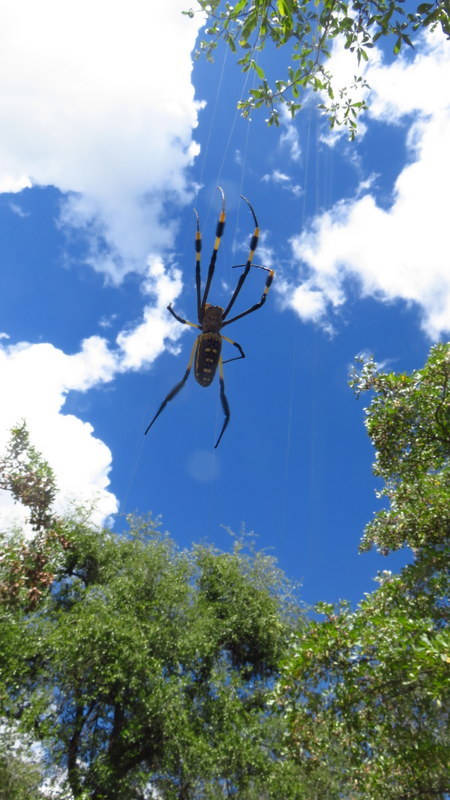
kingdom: Animalia
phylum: Arthropoda
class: Arachnida
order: Araneae
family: Araneidae
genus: Trichonephila
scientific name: Trichonephila senegalensis
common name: Banded golden orb weaver
